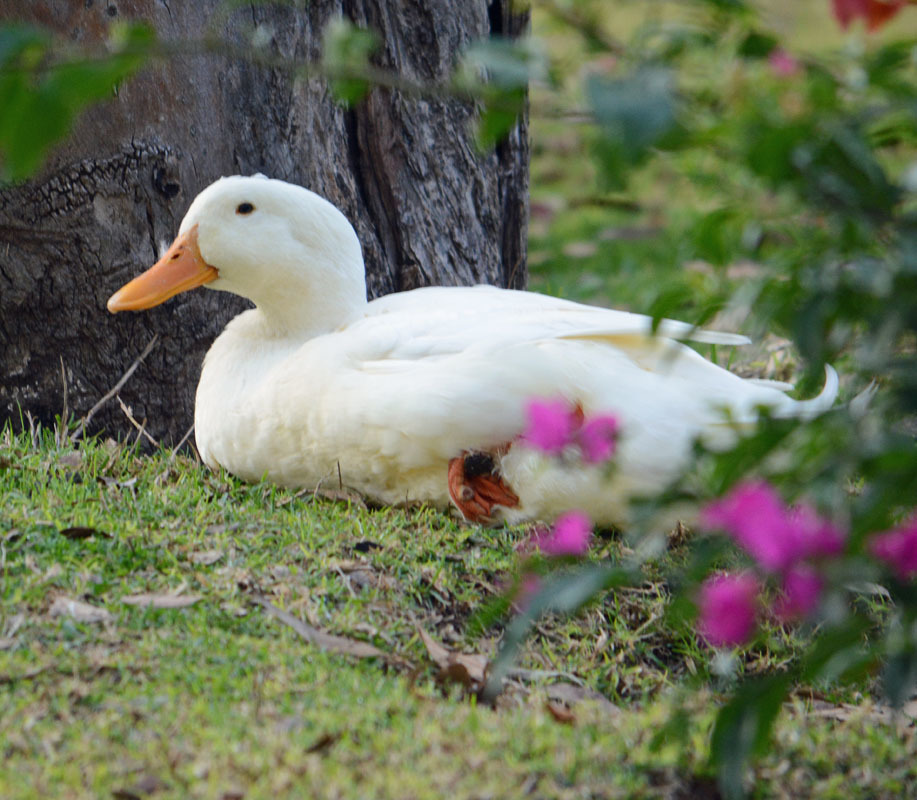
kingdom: Animalia
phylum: Chordata
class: Aves
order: Anseriformes
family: Anatidae
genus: Anas
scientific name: Anas platyrhynchos
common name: Mallard
